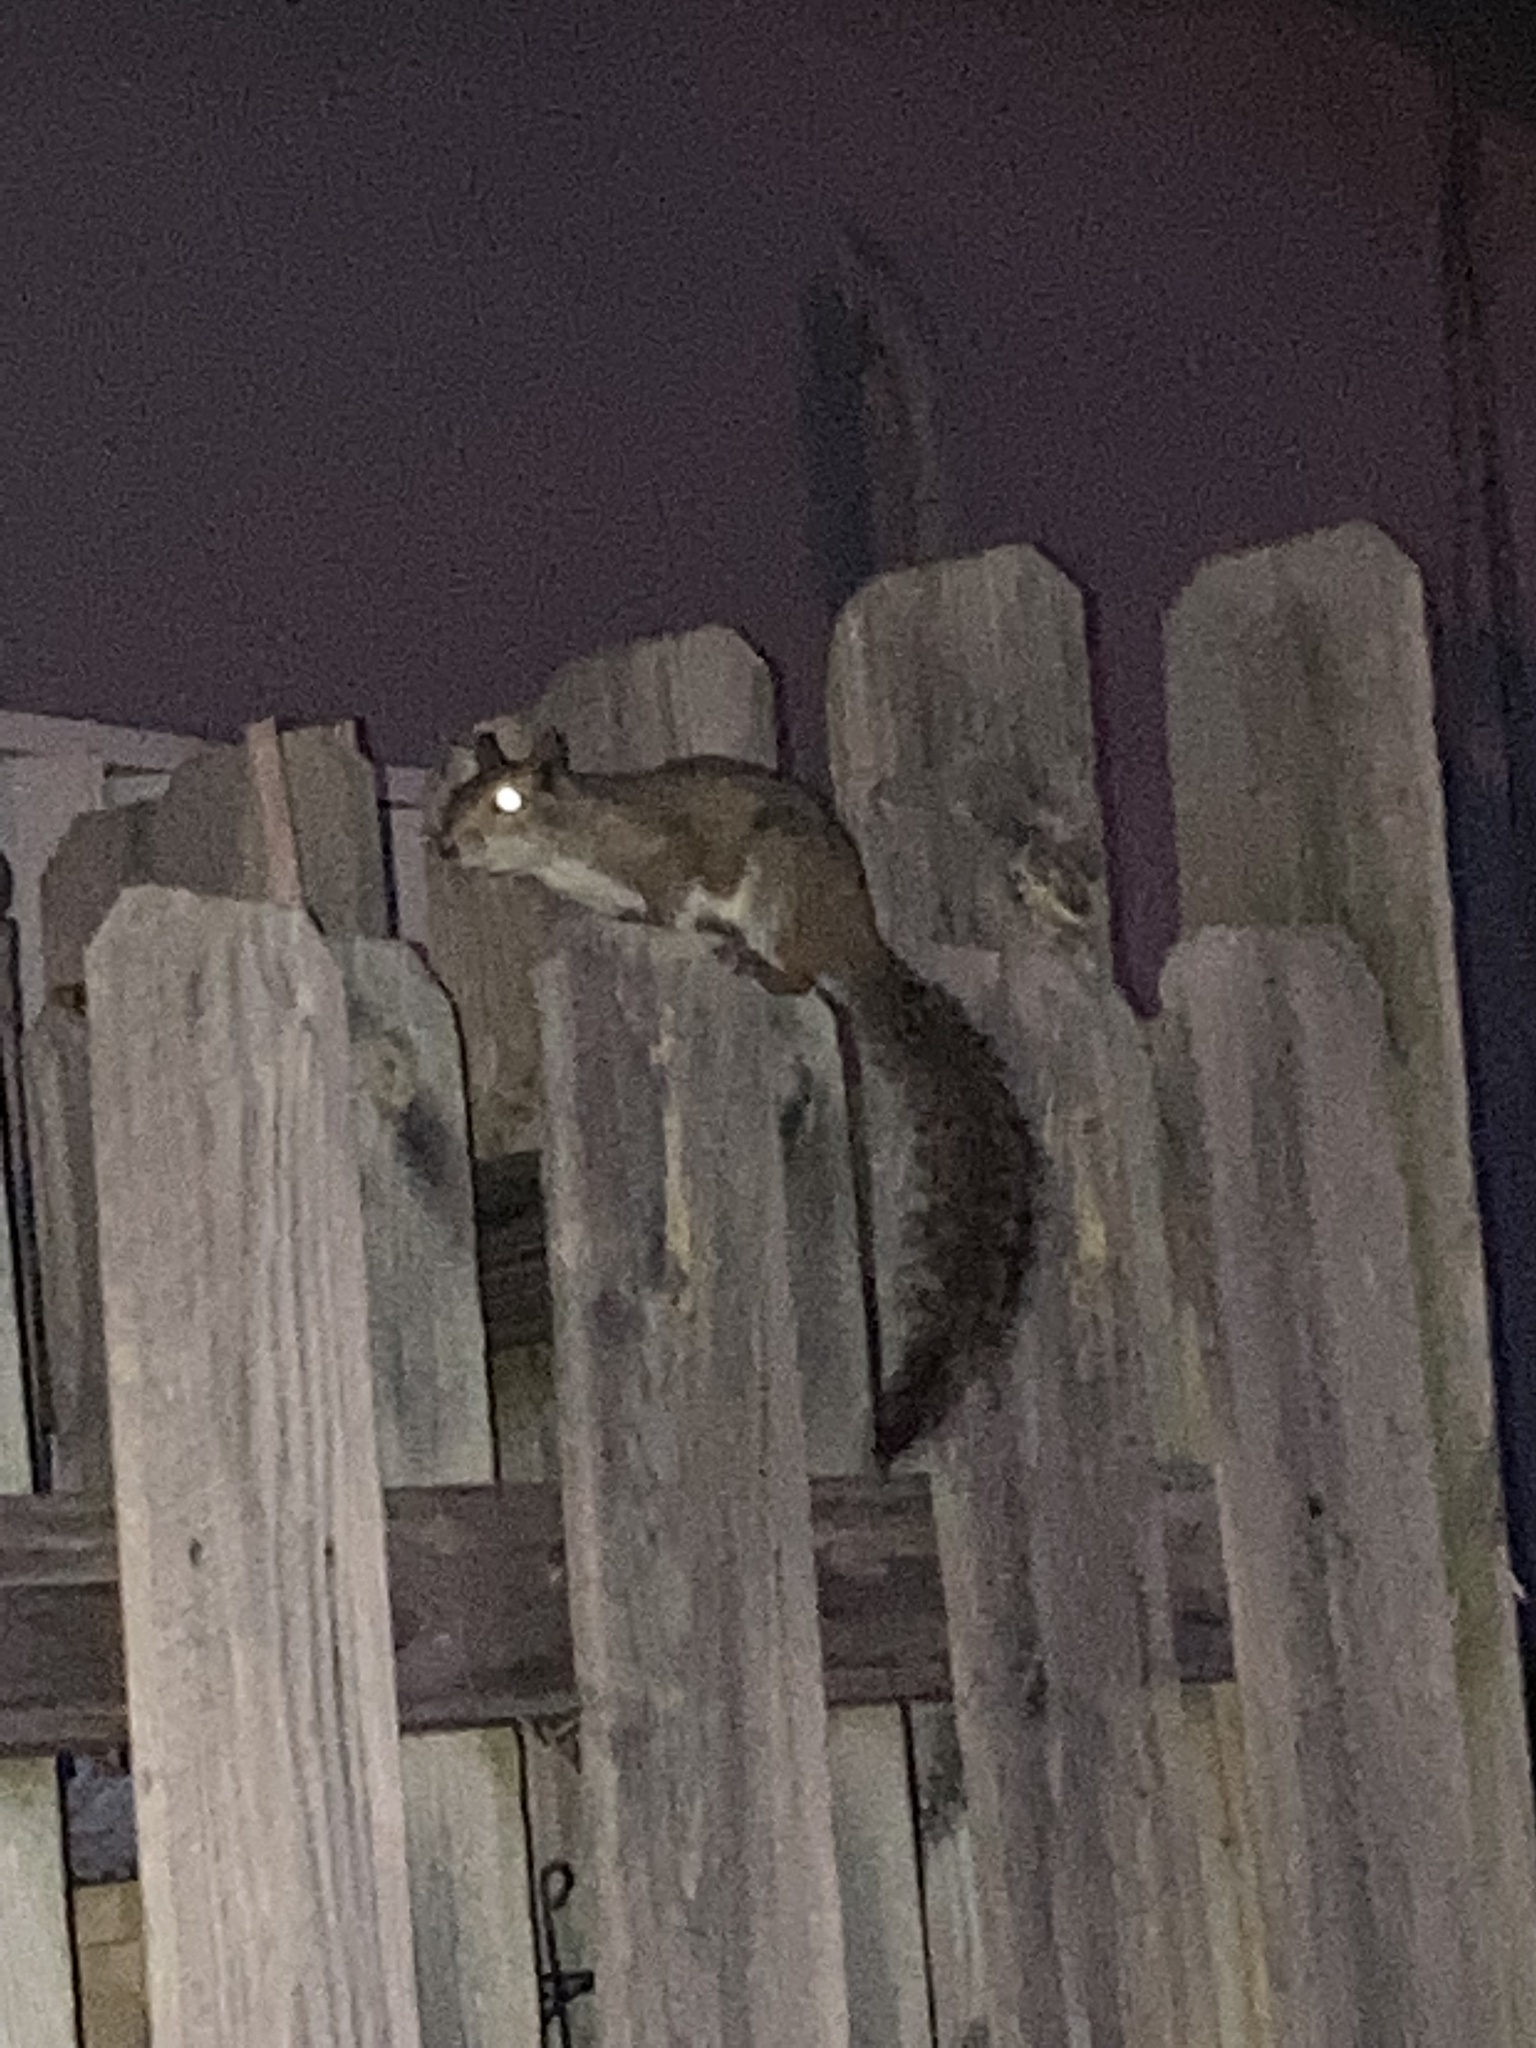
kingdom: Animalia
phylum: Chordata
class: Mammalia
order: Rodentia
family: Sciuridae
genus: Sciurus
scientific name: Sciurus carolinensis
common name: Eastern gray squirrel
